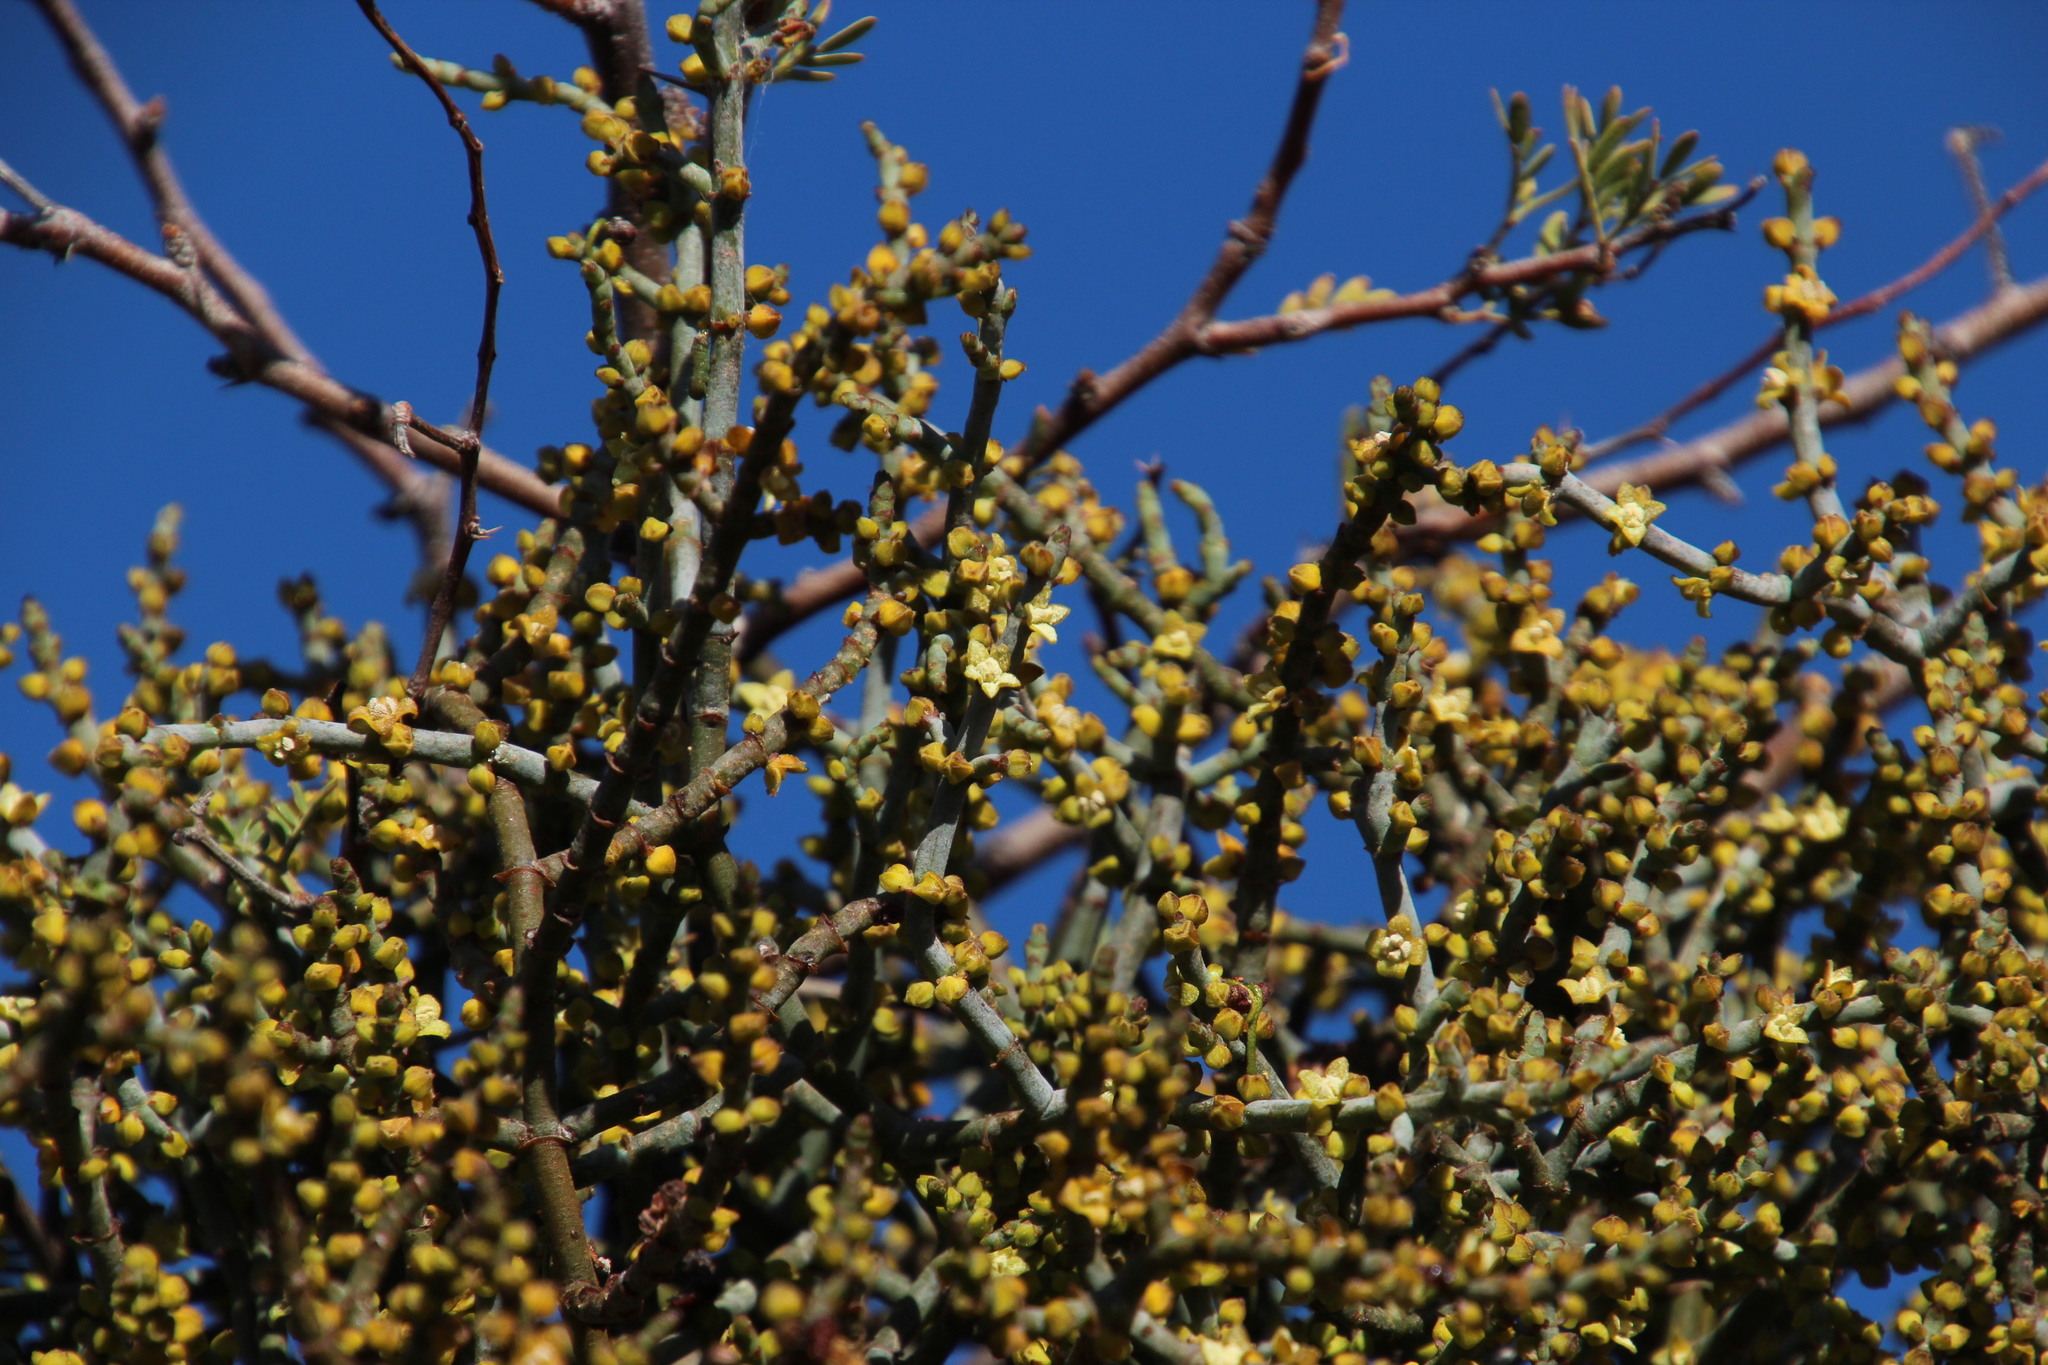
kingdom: Plantae
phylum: Tracheophyta
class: Magnoliopsida
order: Santalales
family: Viscaceae
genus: Viscum
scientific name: Viscum capense
